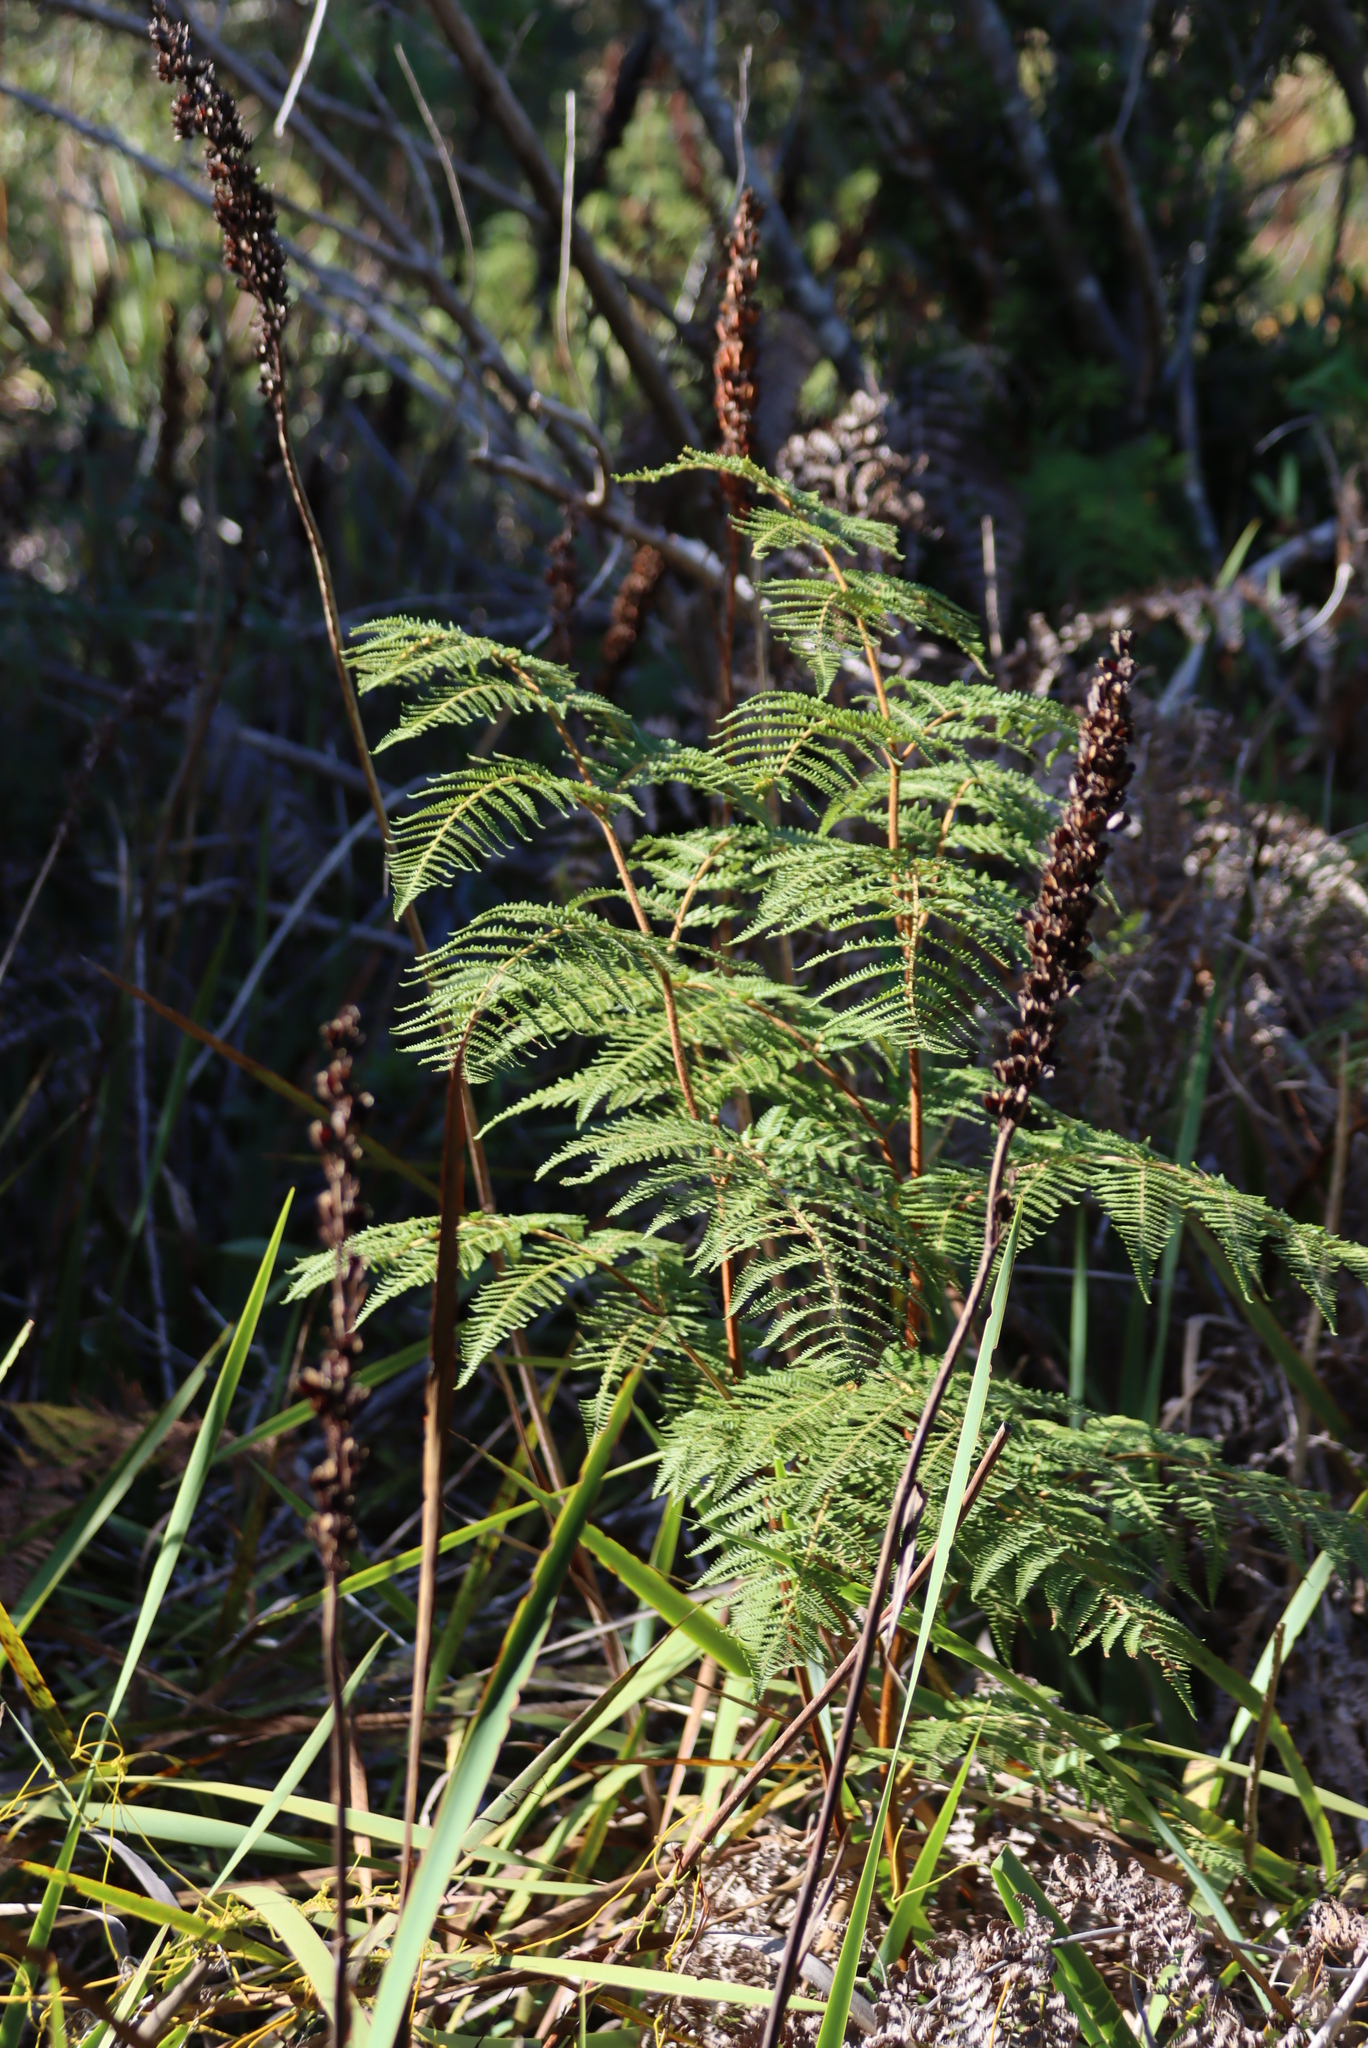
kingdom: Plantae
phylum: Tracheophyta
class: Polypodiopsida
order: Polypodiales
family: Dennstaedtiaceae
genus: Pteridium
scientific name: Pteridium aquilinum
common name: Bracken
